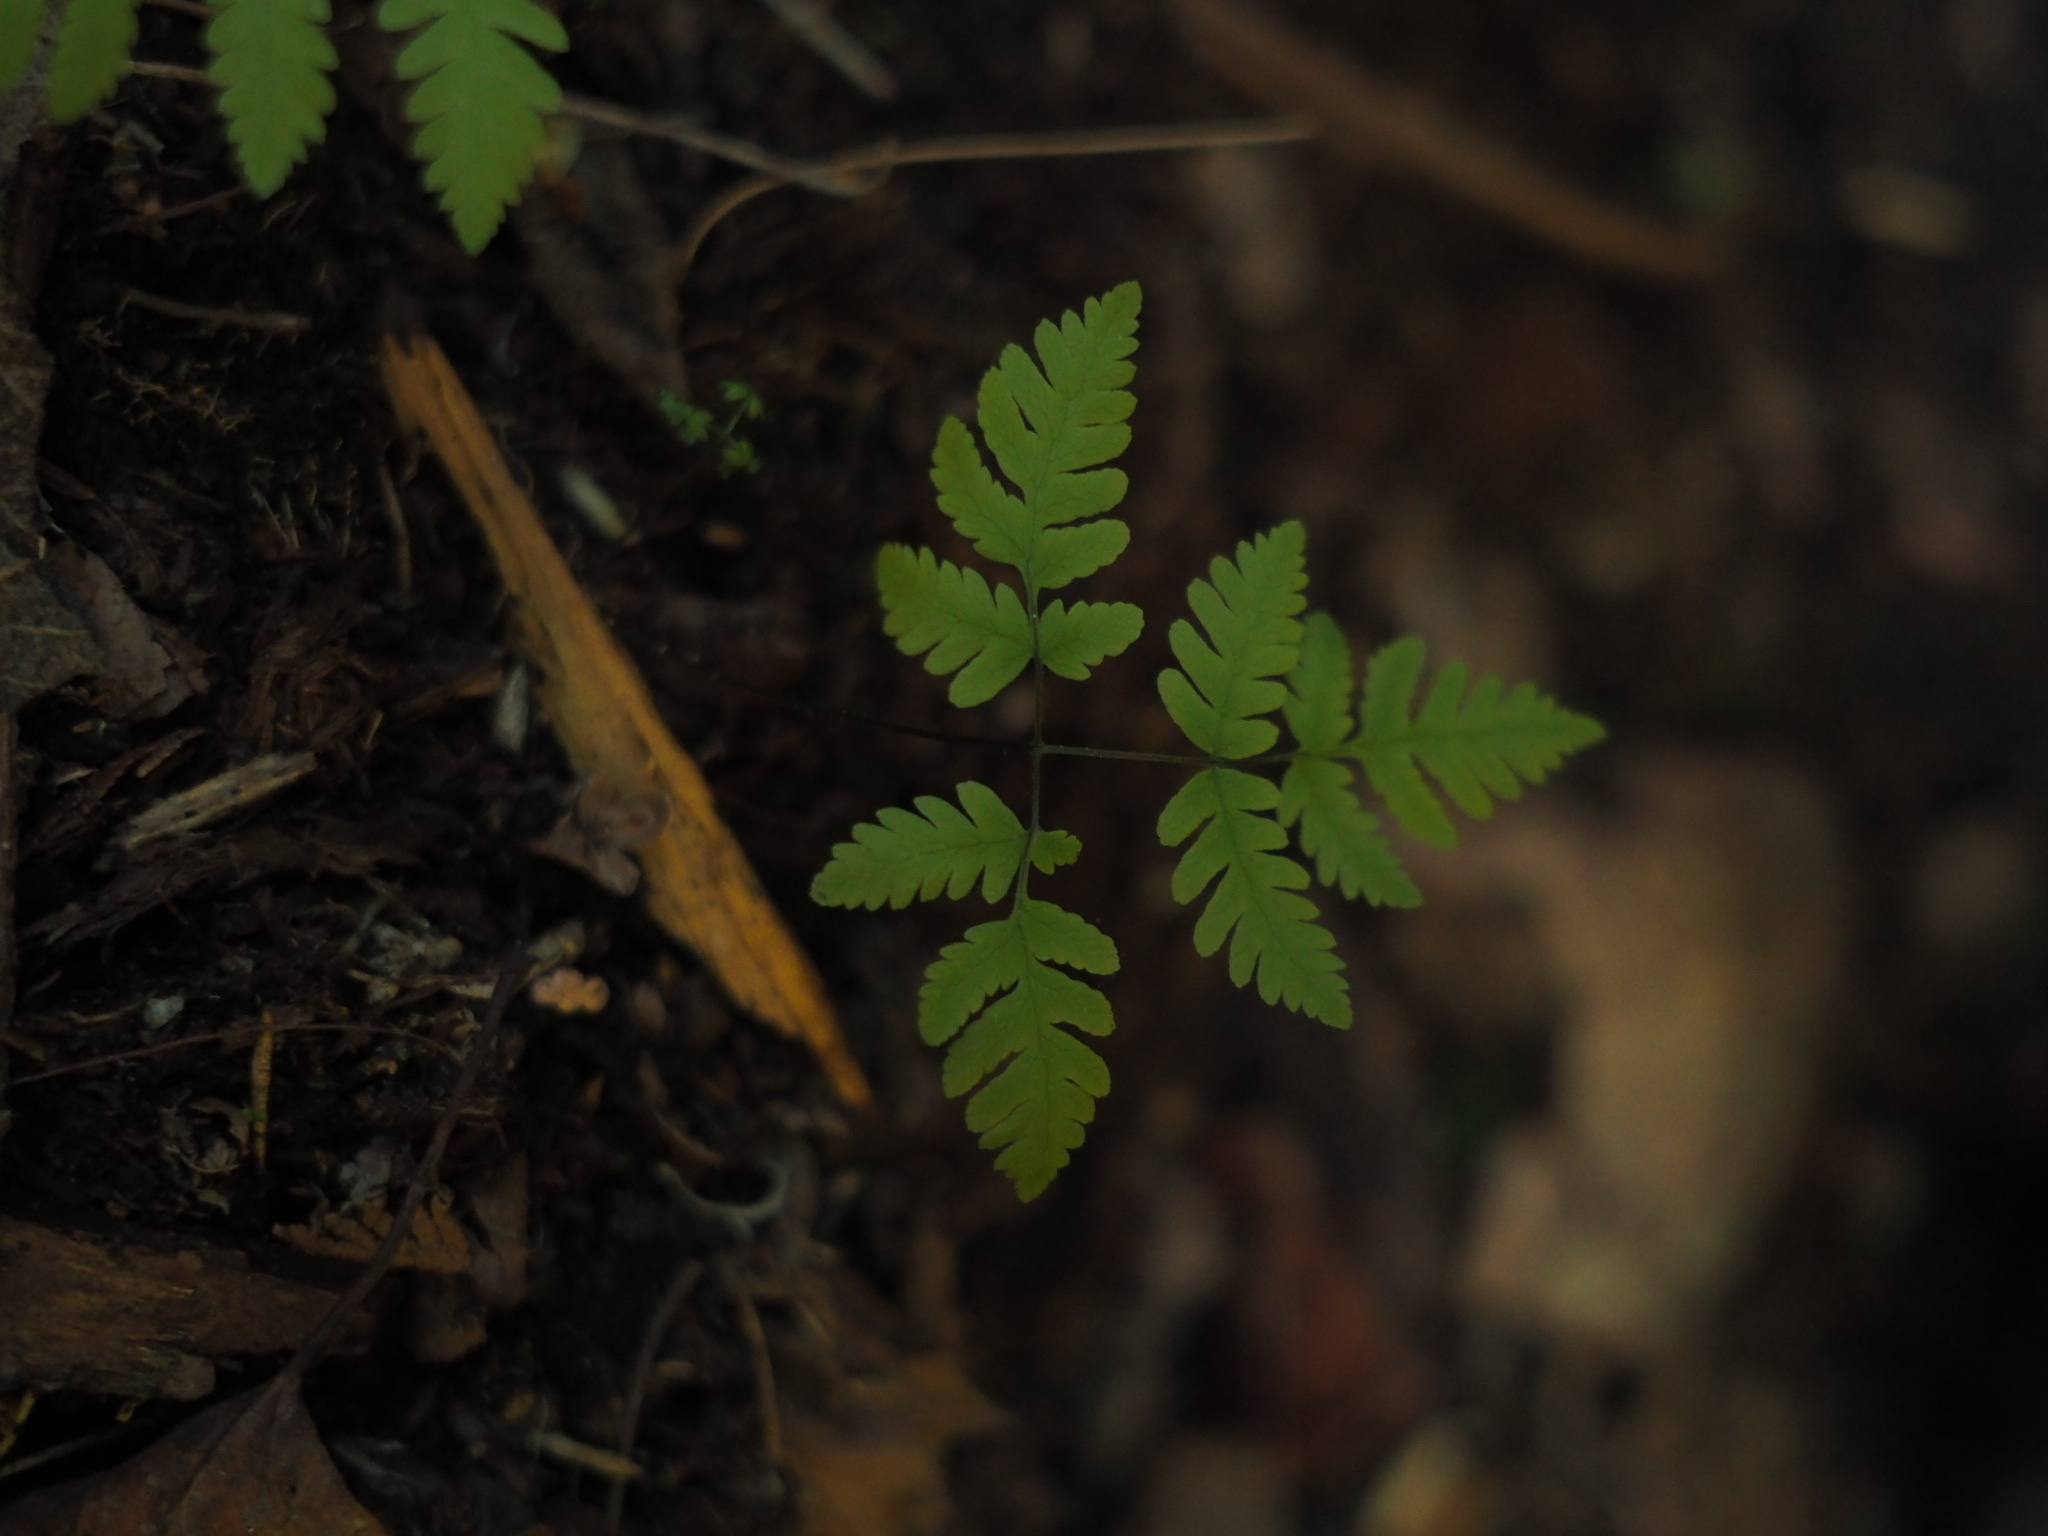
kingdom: Plantae
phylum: Tracheophyta
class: Polypodiopsida
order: Polypodiales
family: Cystopteridaceae
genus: Gymnocarpium
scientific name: Gymnocarpium dryopteris
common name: Oak fern
